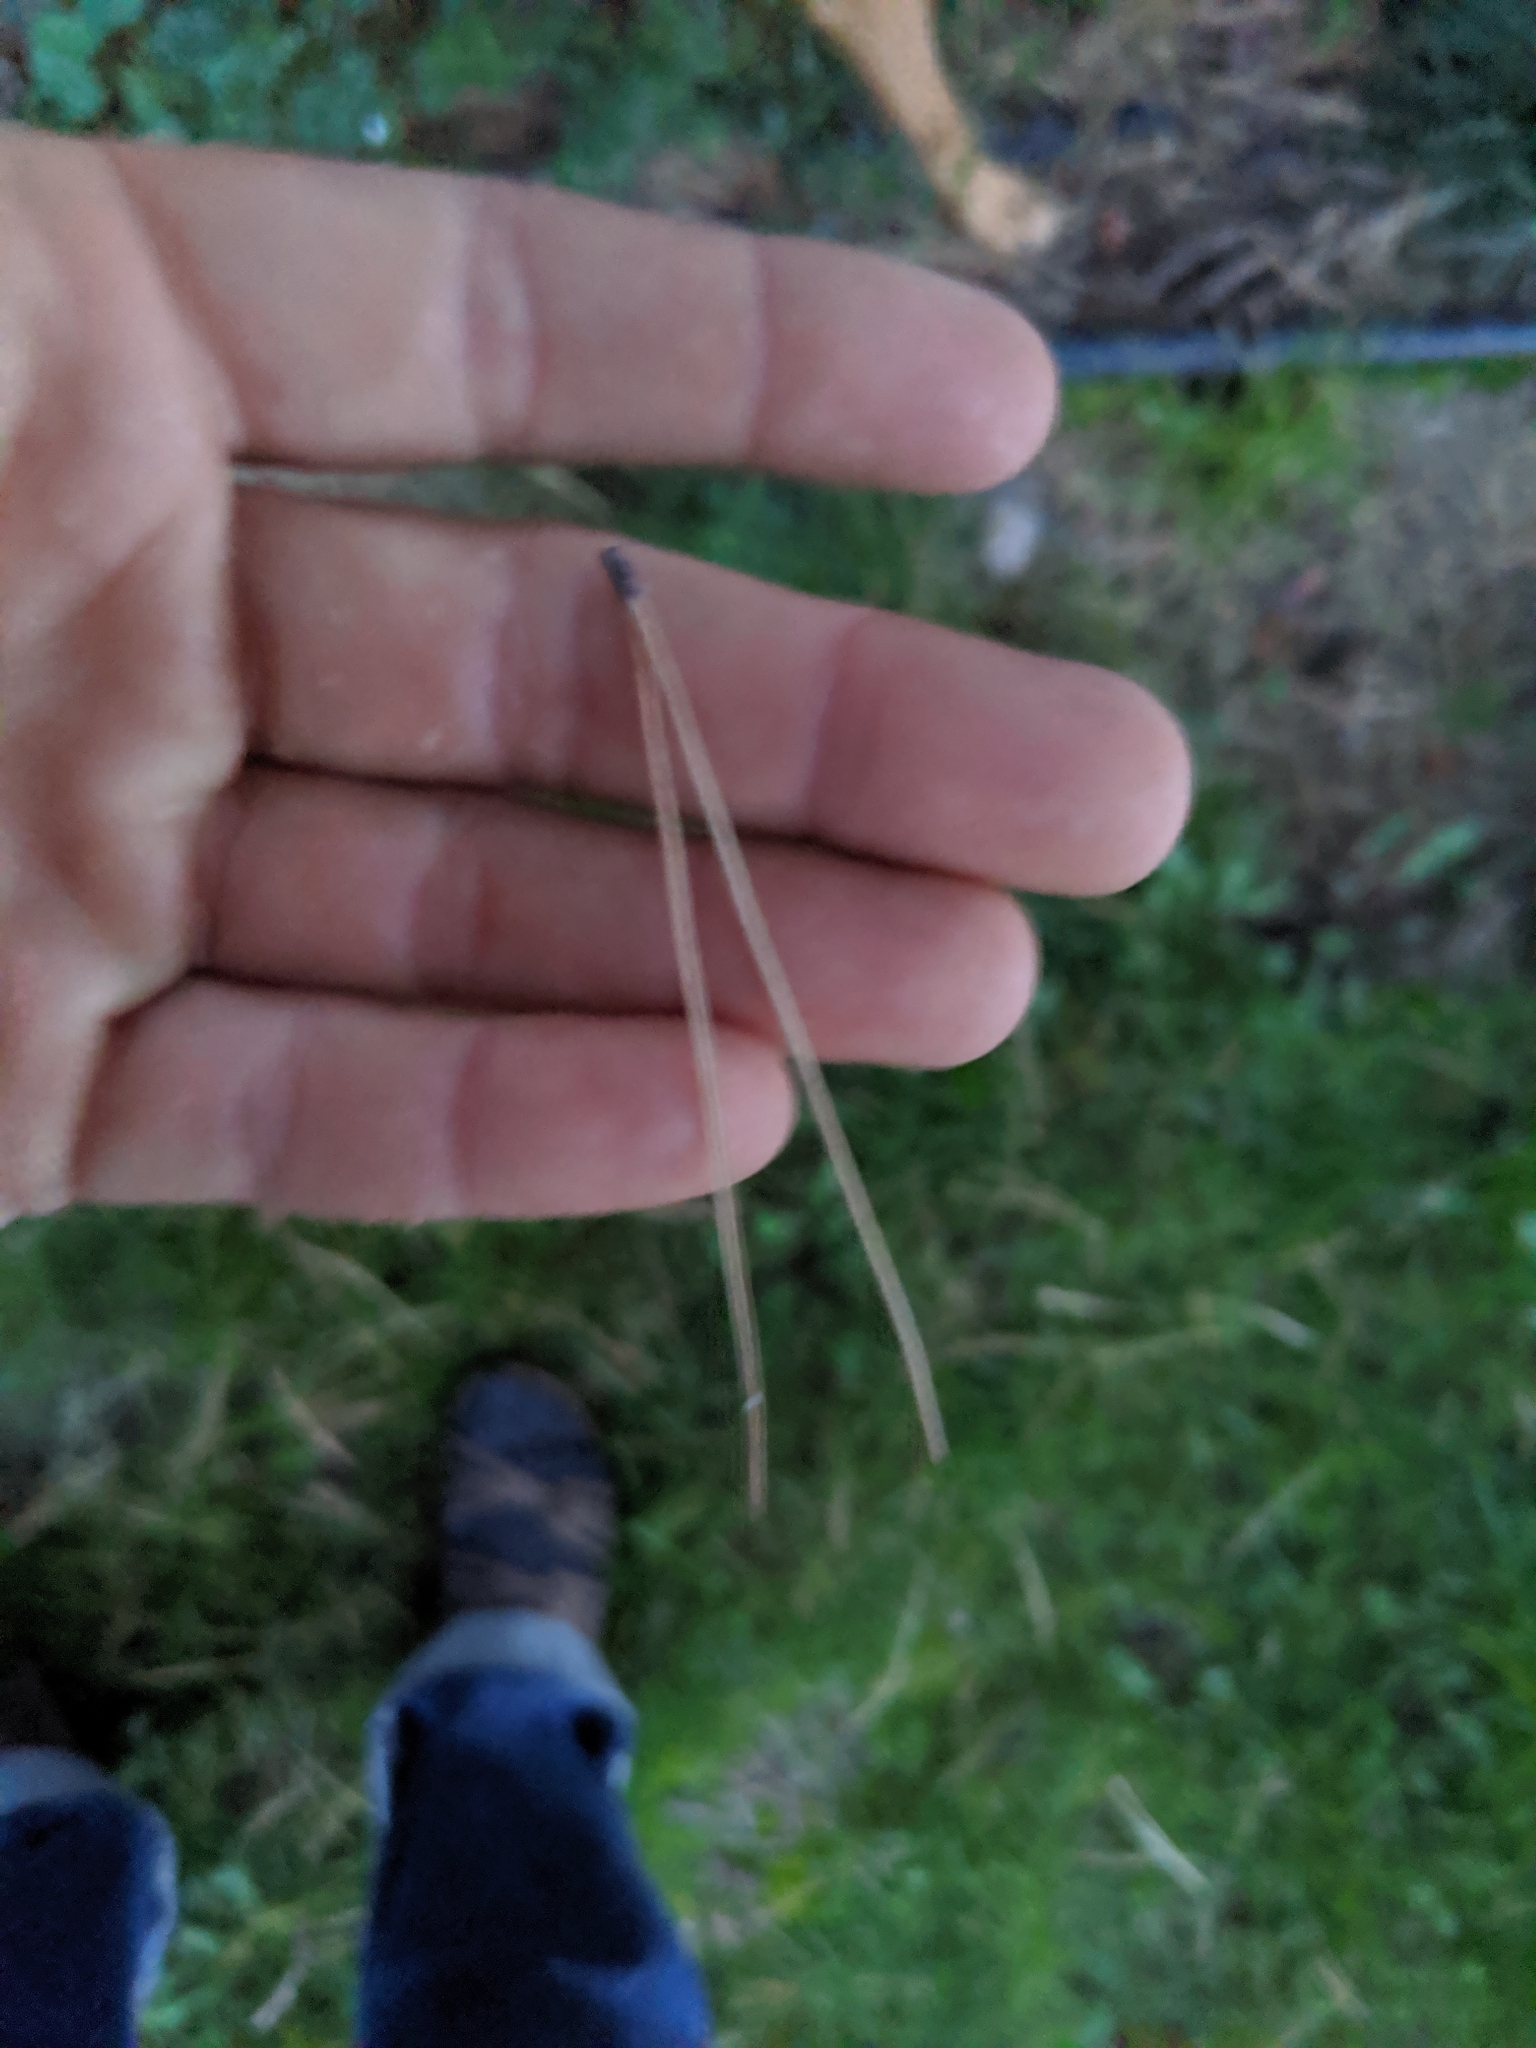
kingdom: Plantae
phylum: Tracheophyta
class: Pinopsida
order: Pinales
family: Pinaceae
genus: Pinus
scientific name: Pinus contorta
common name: Lodgepole pine
